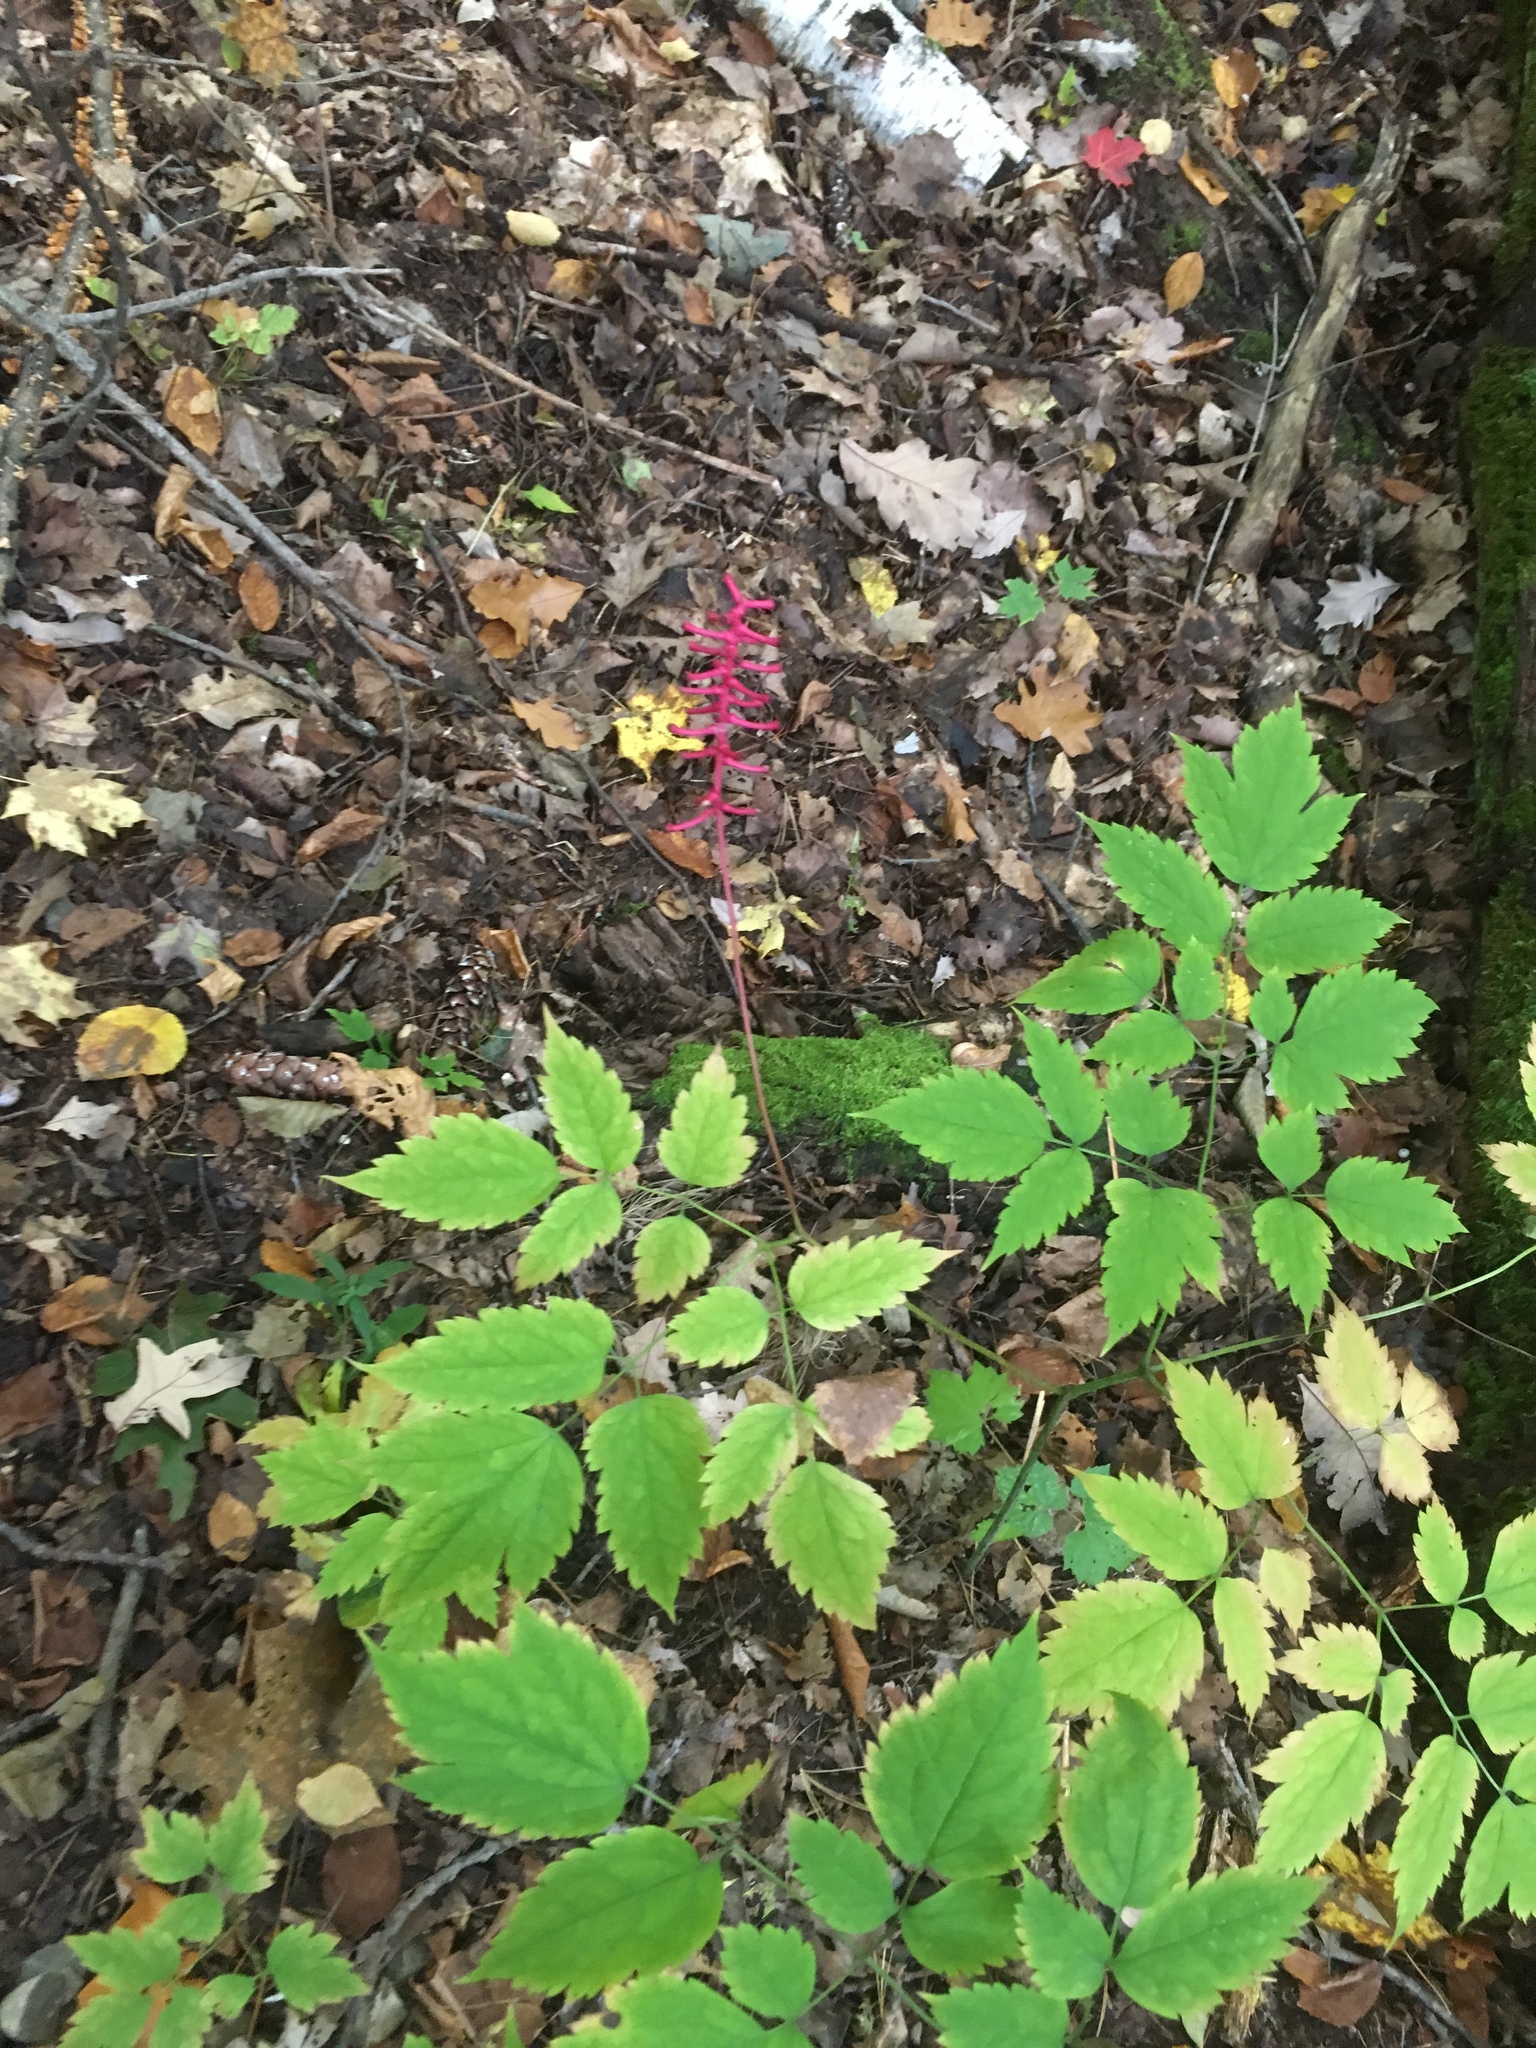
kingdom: Plantae
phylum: Tracheophyta
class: Magnoliopsida
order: Ranunculales
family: Ranunculaceae
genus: Actaea
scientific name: Actaea pachypoda
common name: Doll's-eyes
